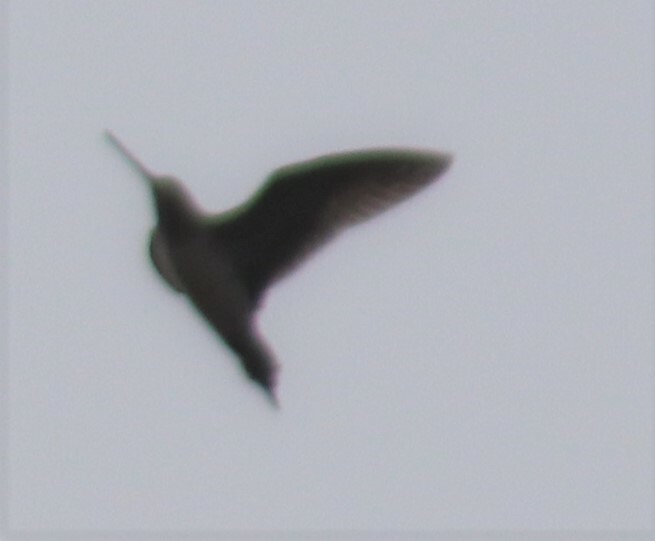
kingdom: Animalia
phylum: Chordata
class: Aves
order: Charadriiformes
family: Scolopacidae
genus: Gallinago
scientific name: Gallinago delicata
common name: Wilson's snipe
